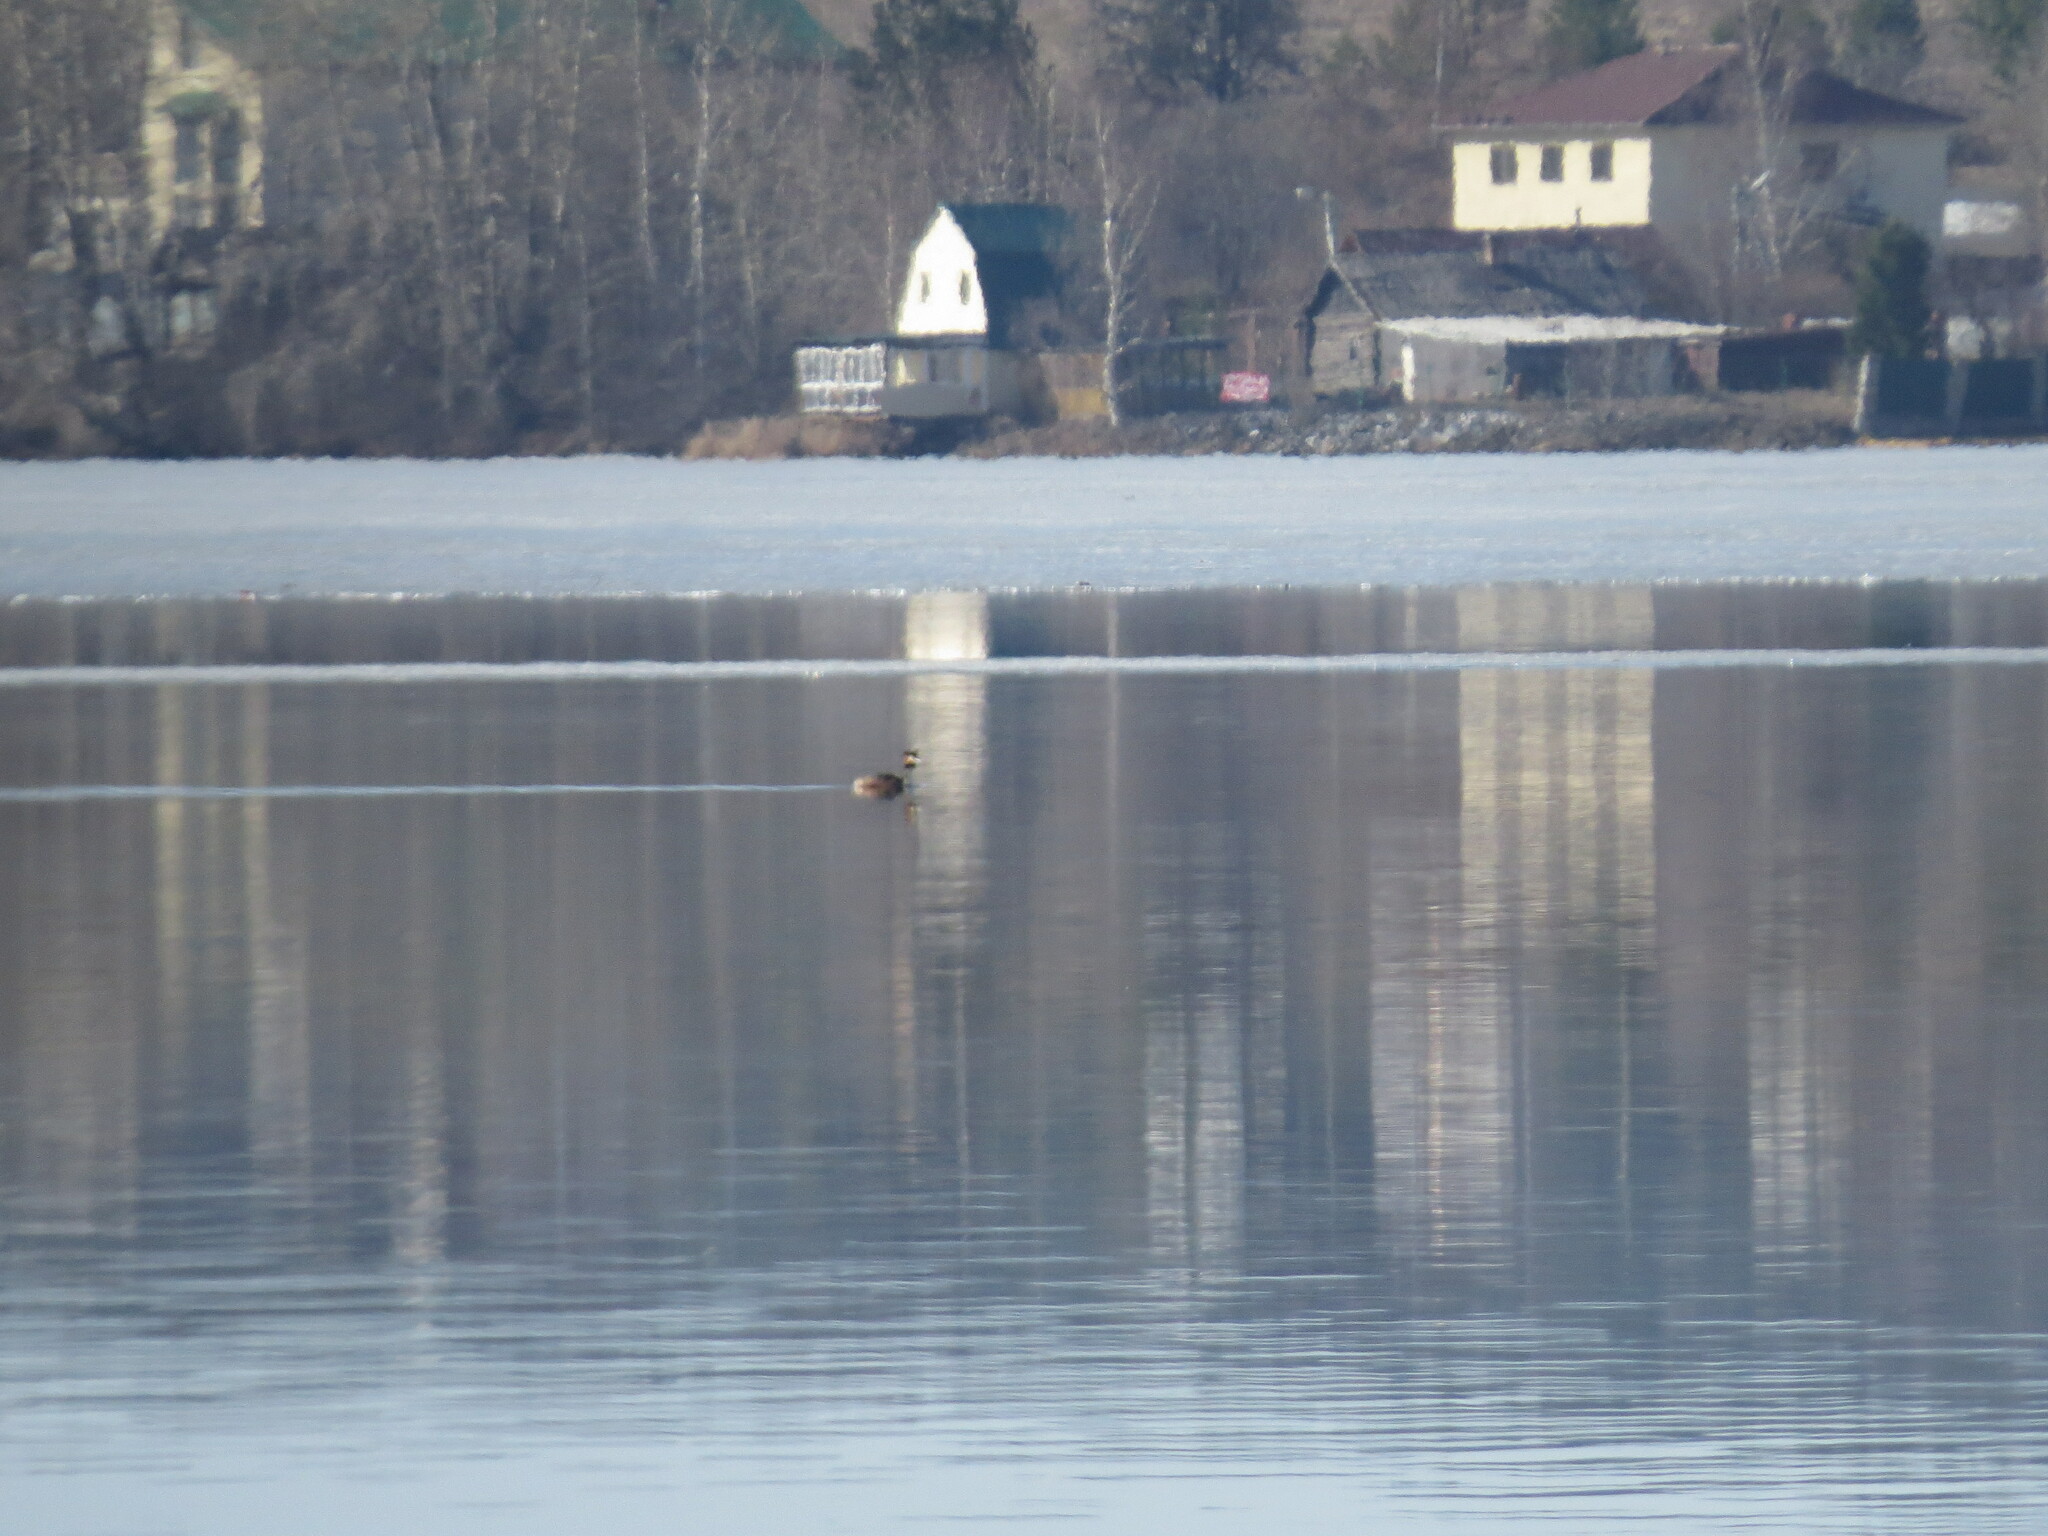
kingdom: Animalia
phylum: Chordata
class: Aves
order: Podicipediformes
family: Podicipedidae
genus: Podiceps
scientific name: Podiceps cristatus
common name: Great crested grebe
